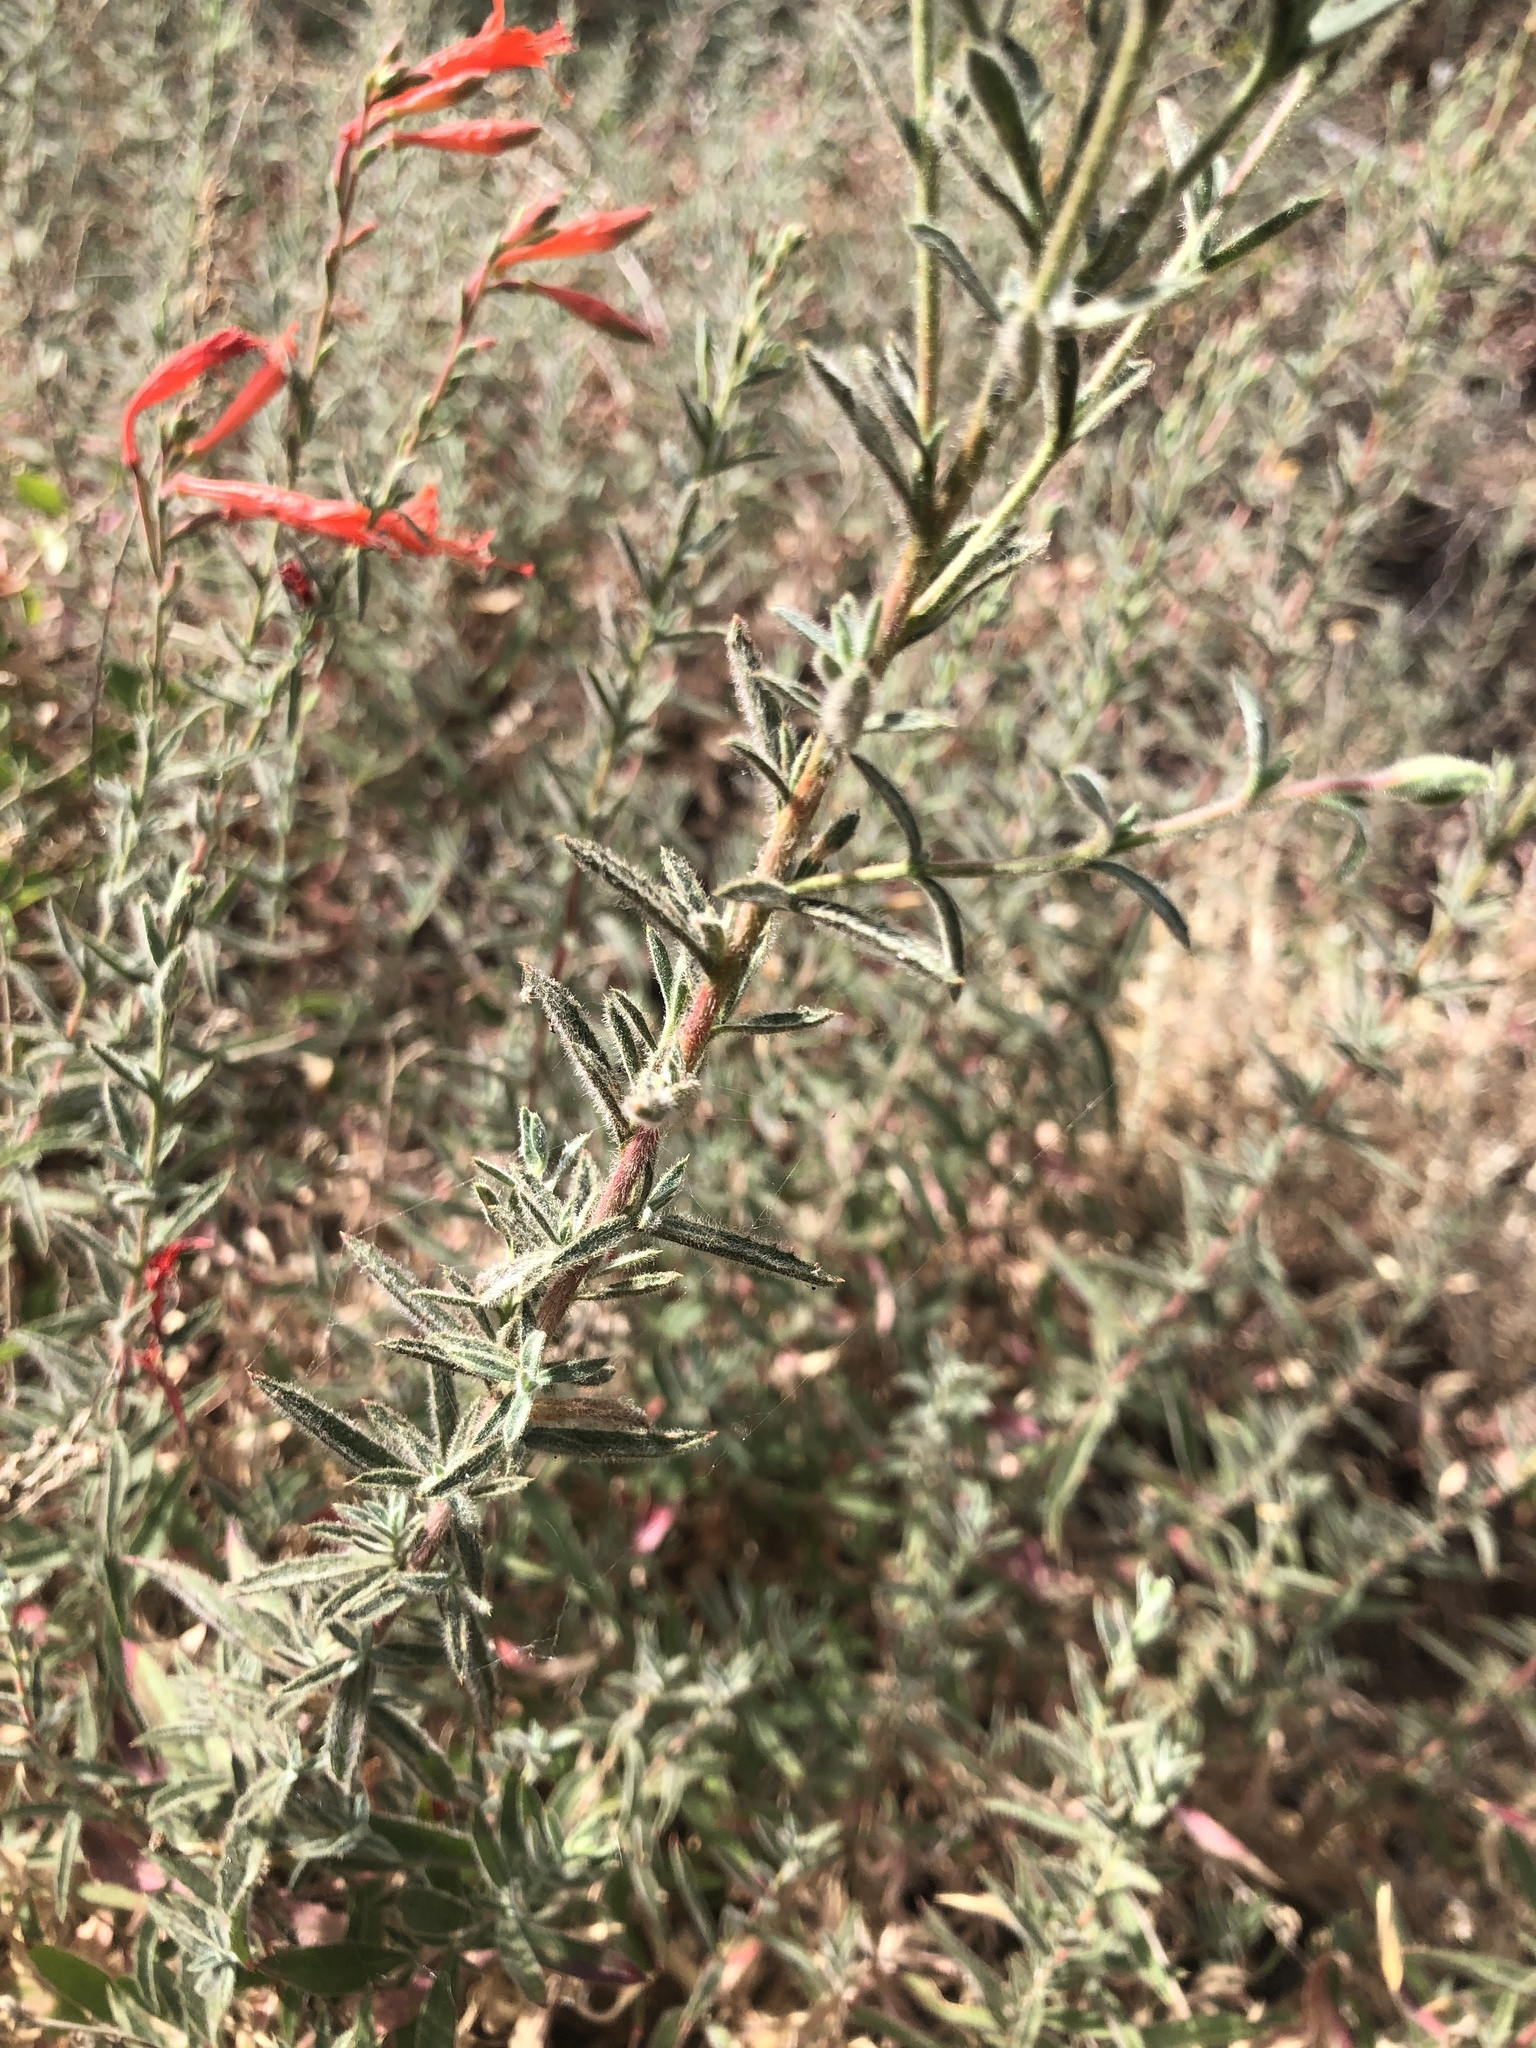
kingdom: Plantae
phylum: Tracheophyta
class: Magnoliopsida
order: Myrtales
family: Onagraceae
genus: Epilobium
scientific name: Epilobium canum
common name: California-fuchsia
